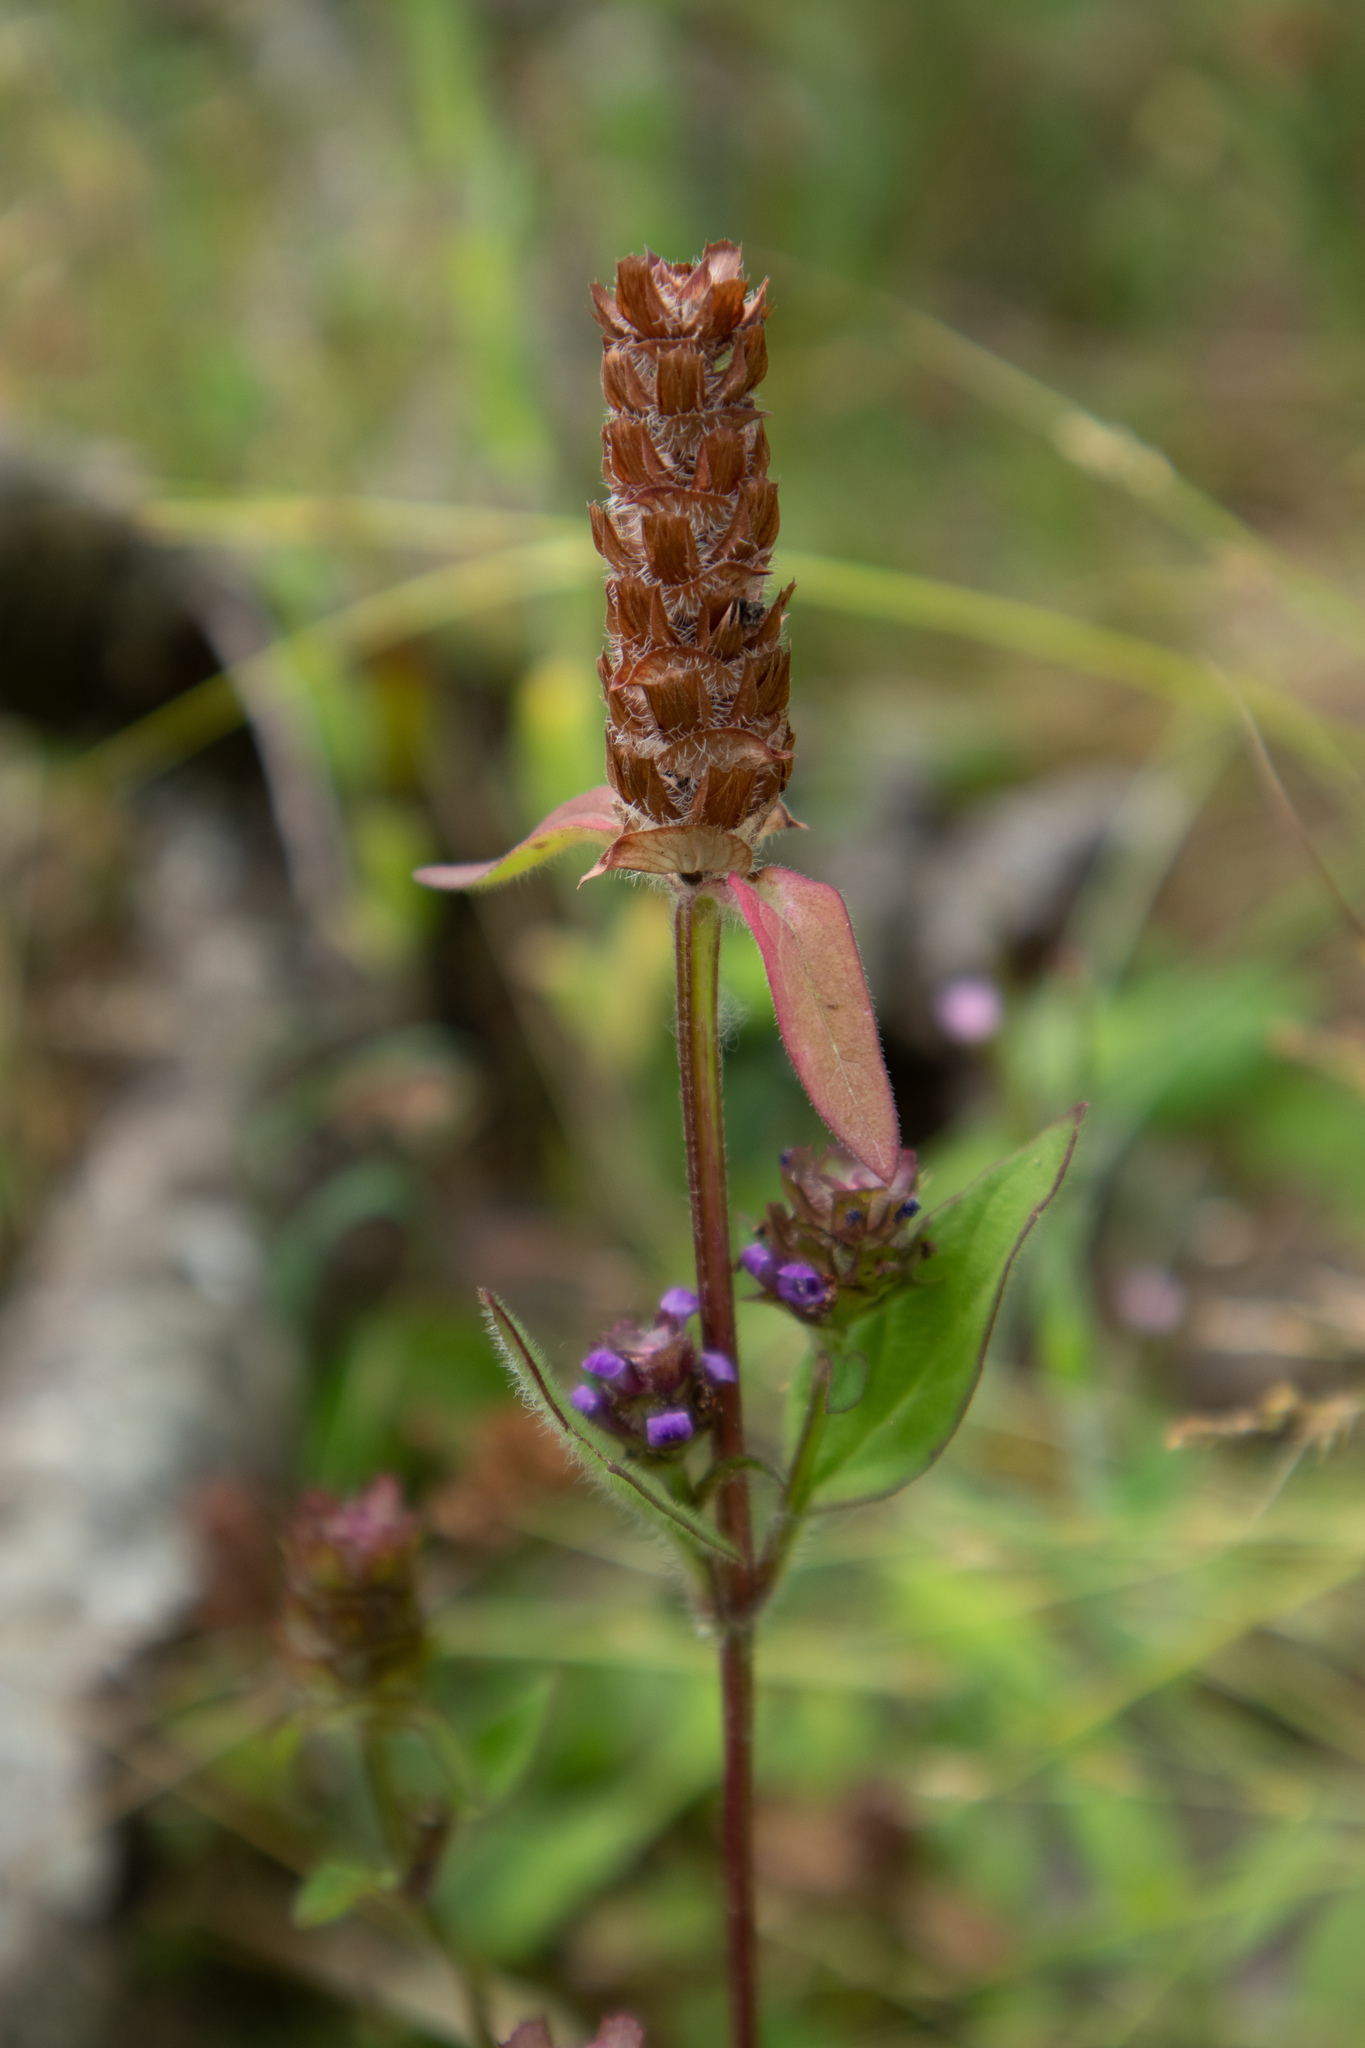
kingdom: Plantae
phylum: Tracheophyta
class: Magnoliopsida
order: Lamiales
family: Lamiaceae
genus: Prunella
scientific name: Prunella vulgaris
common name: Heal-all
